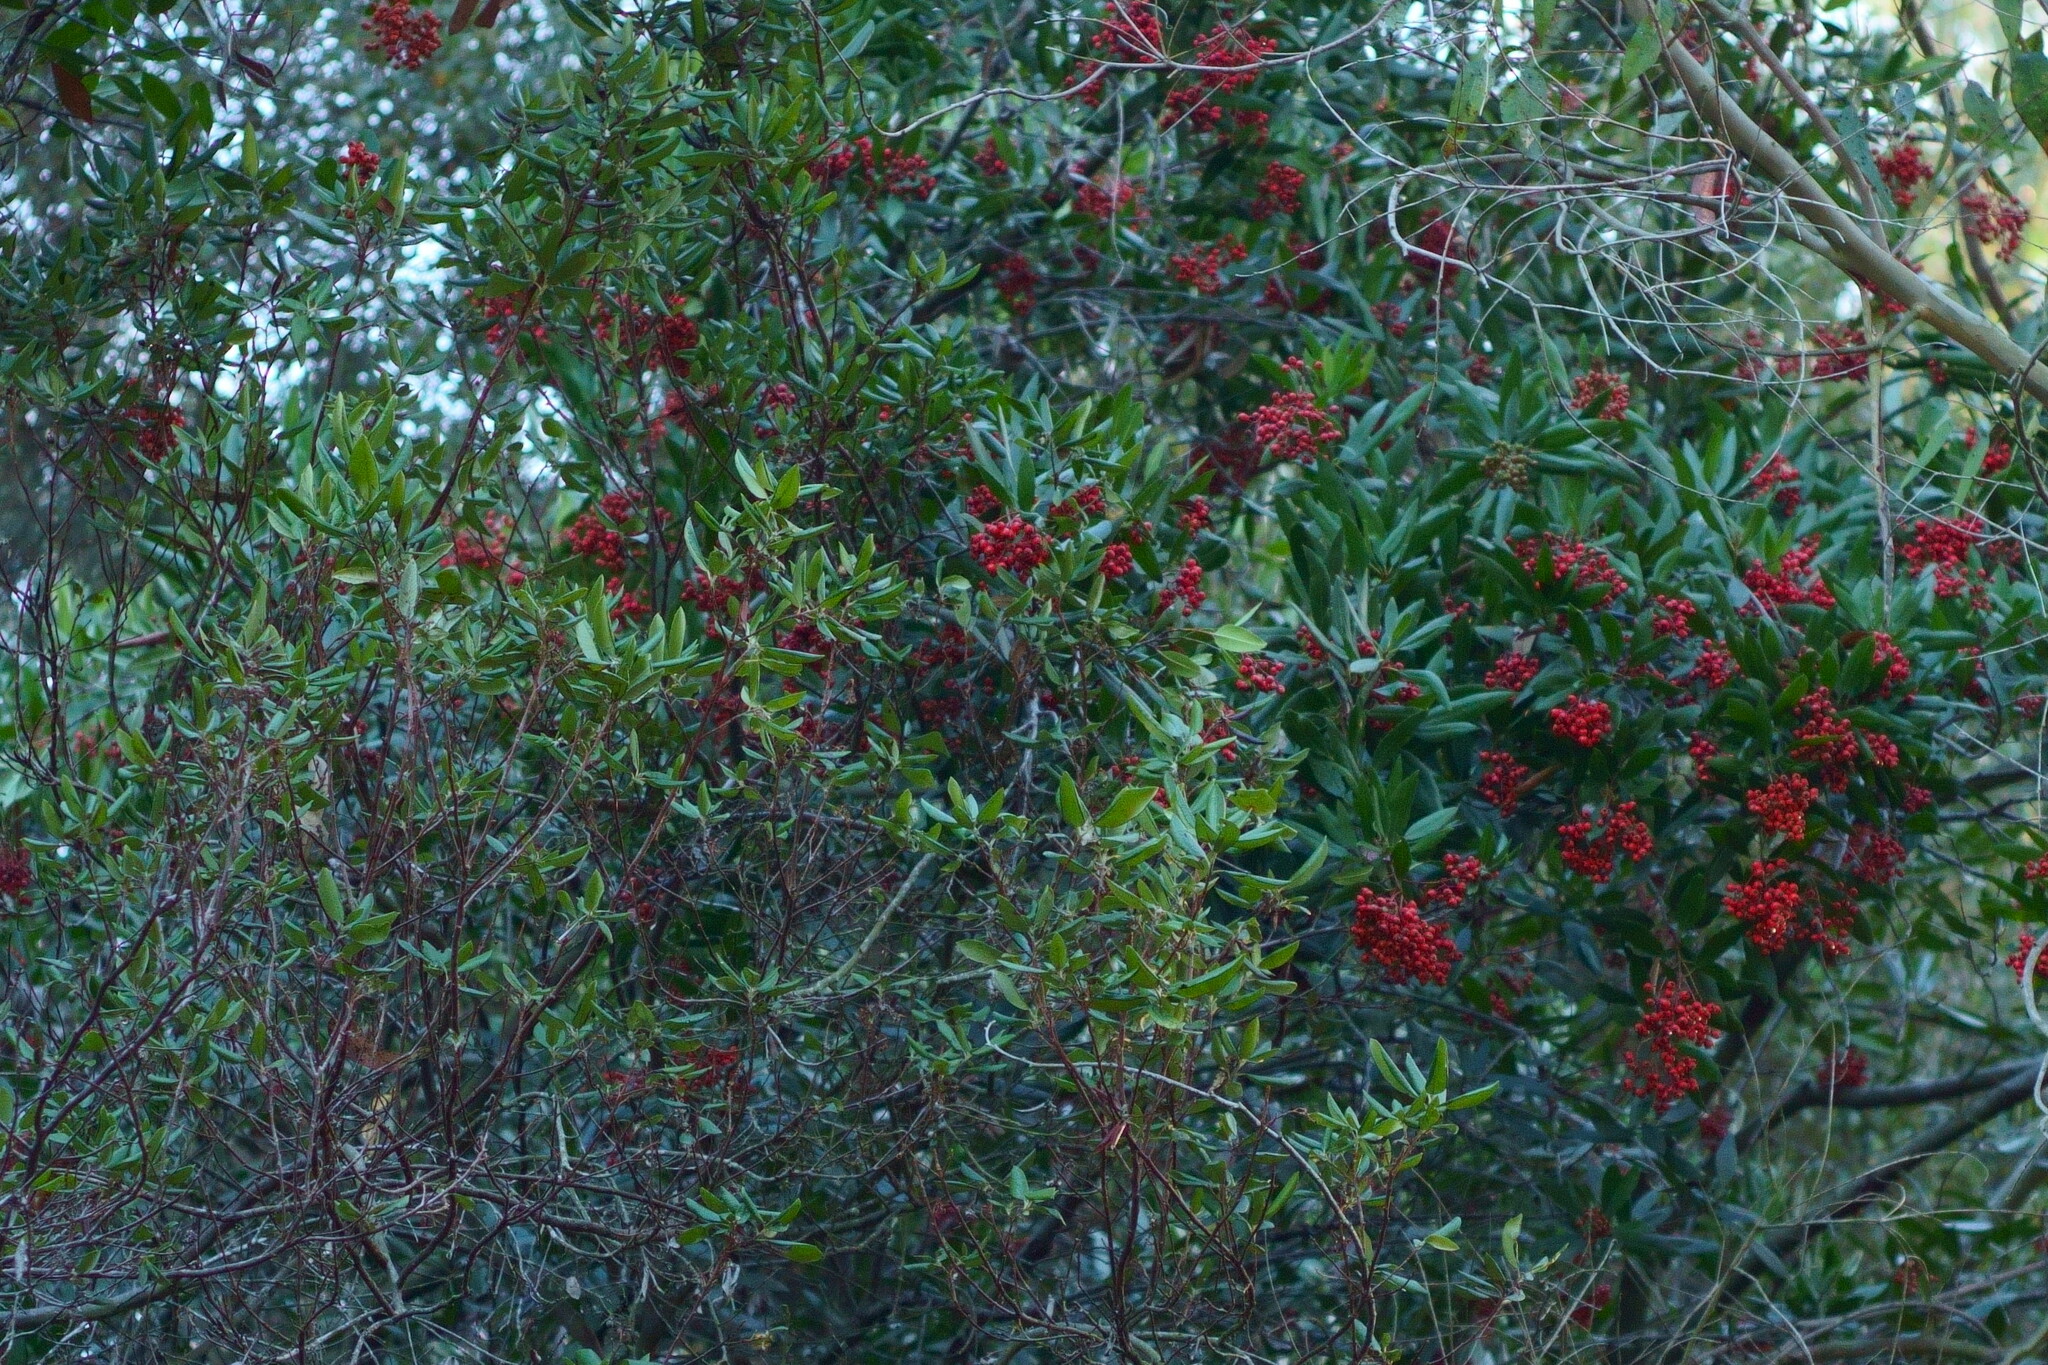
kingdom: Plantae
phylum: Tracheophyta
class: Magnoliopsida
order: Ericales
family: Ericaceae
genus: Arctostaphylos
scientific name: Arctostaphylos bicolor
